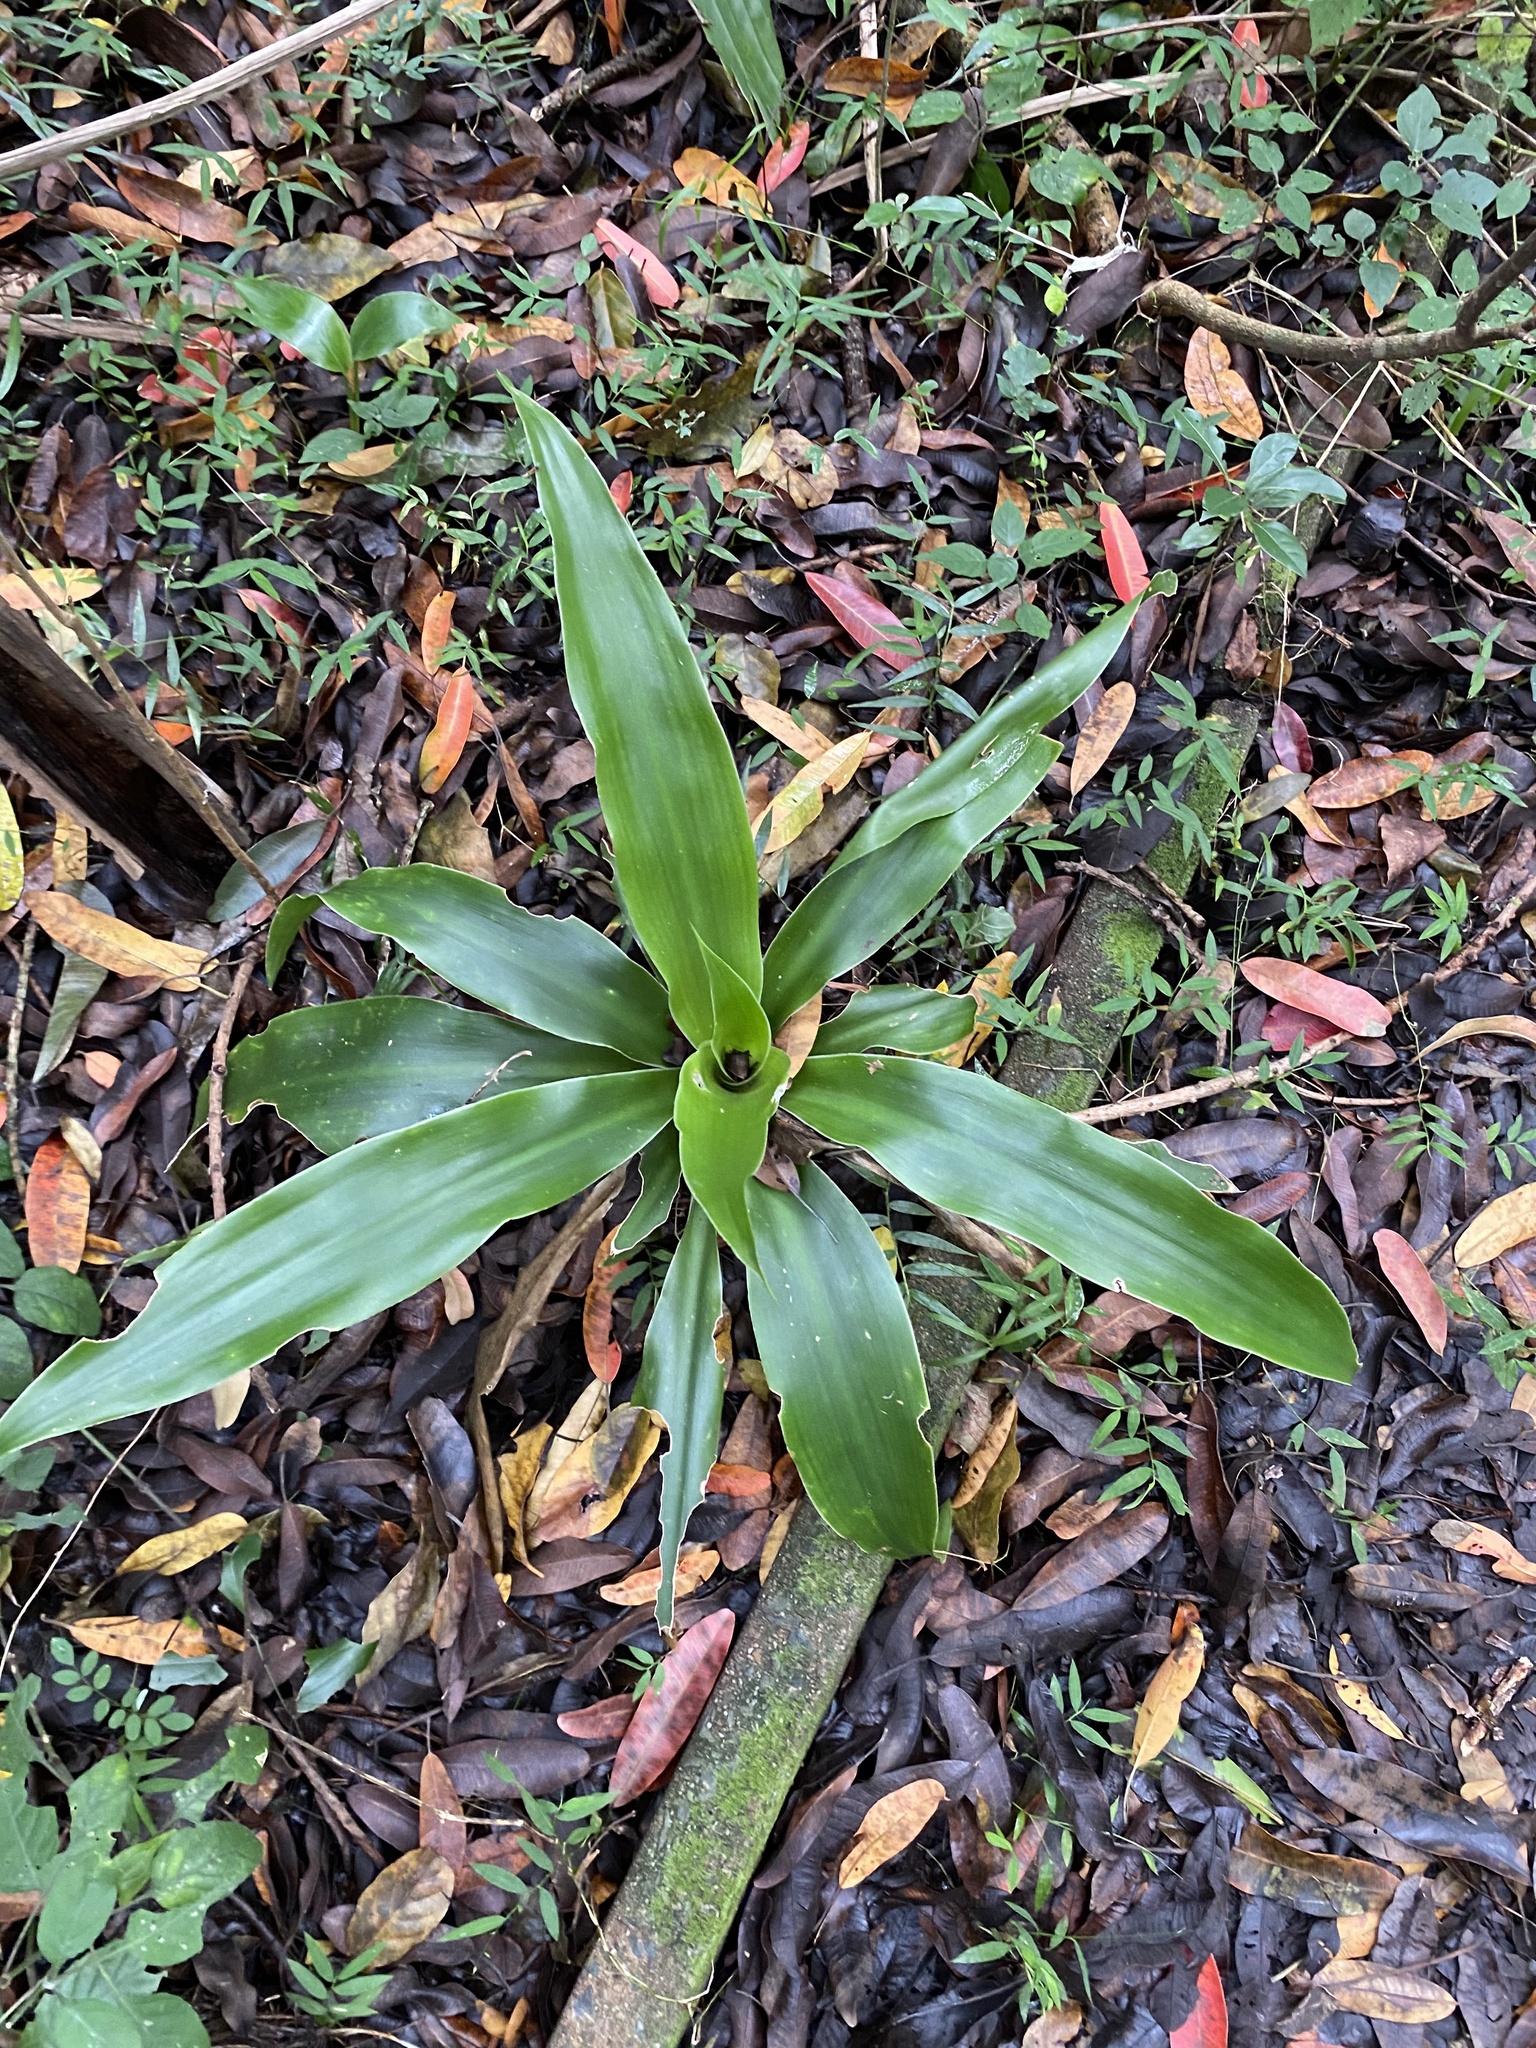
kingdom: Plantae
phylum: Tracheophyta
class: Liliopsida
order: Asparagales
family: Asparagaceae
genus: Dracaena
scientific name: Dracaena aletriformis
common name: Large-leaved dragon tree
